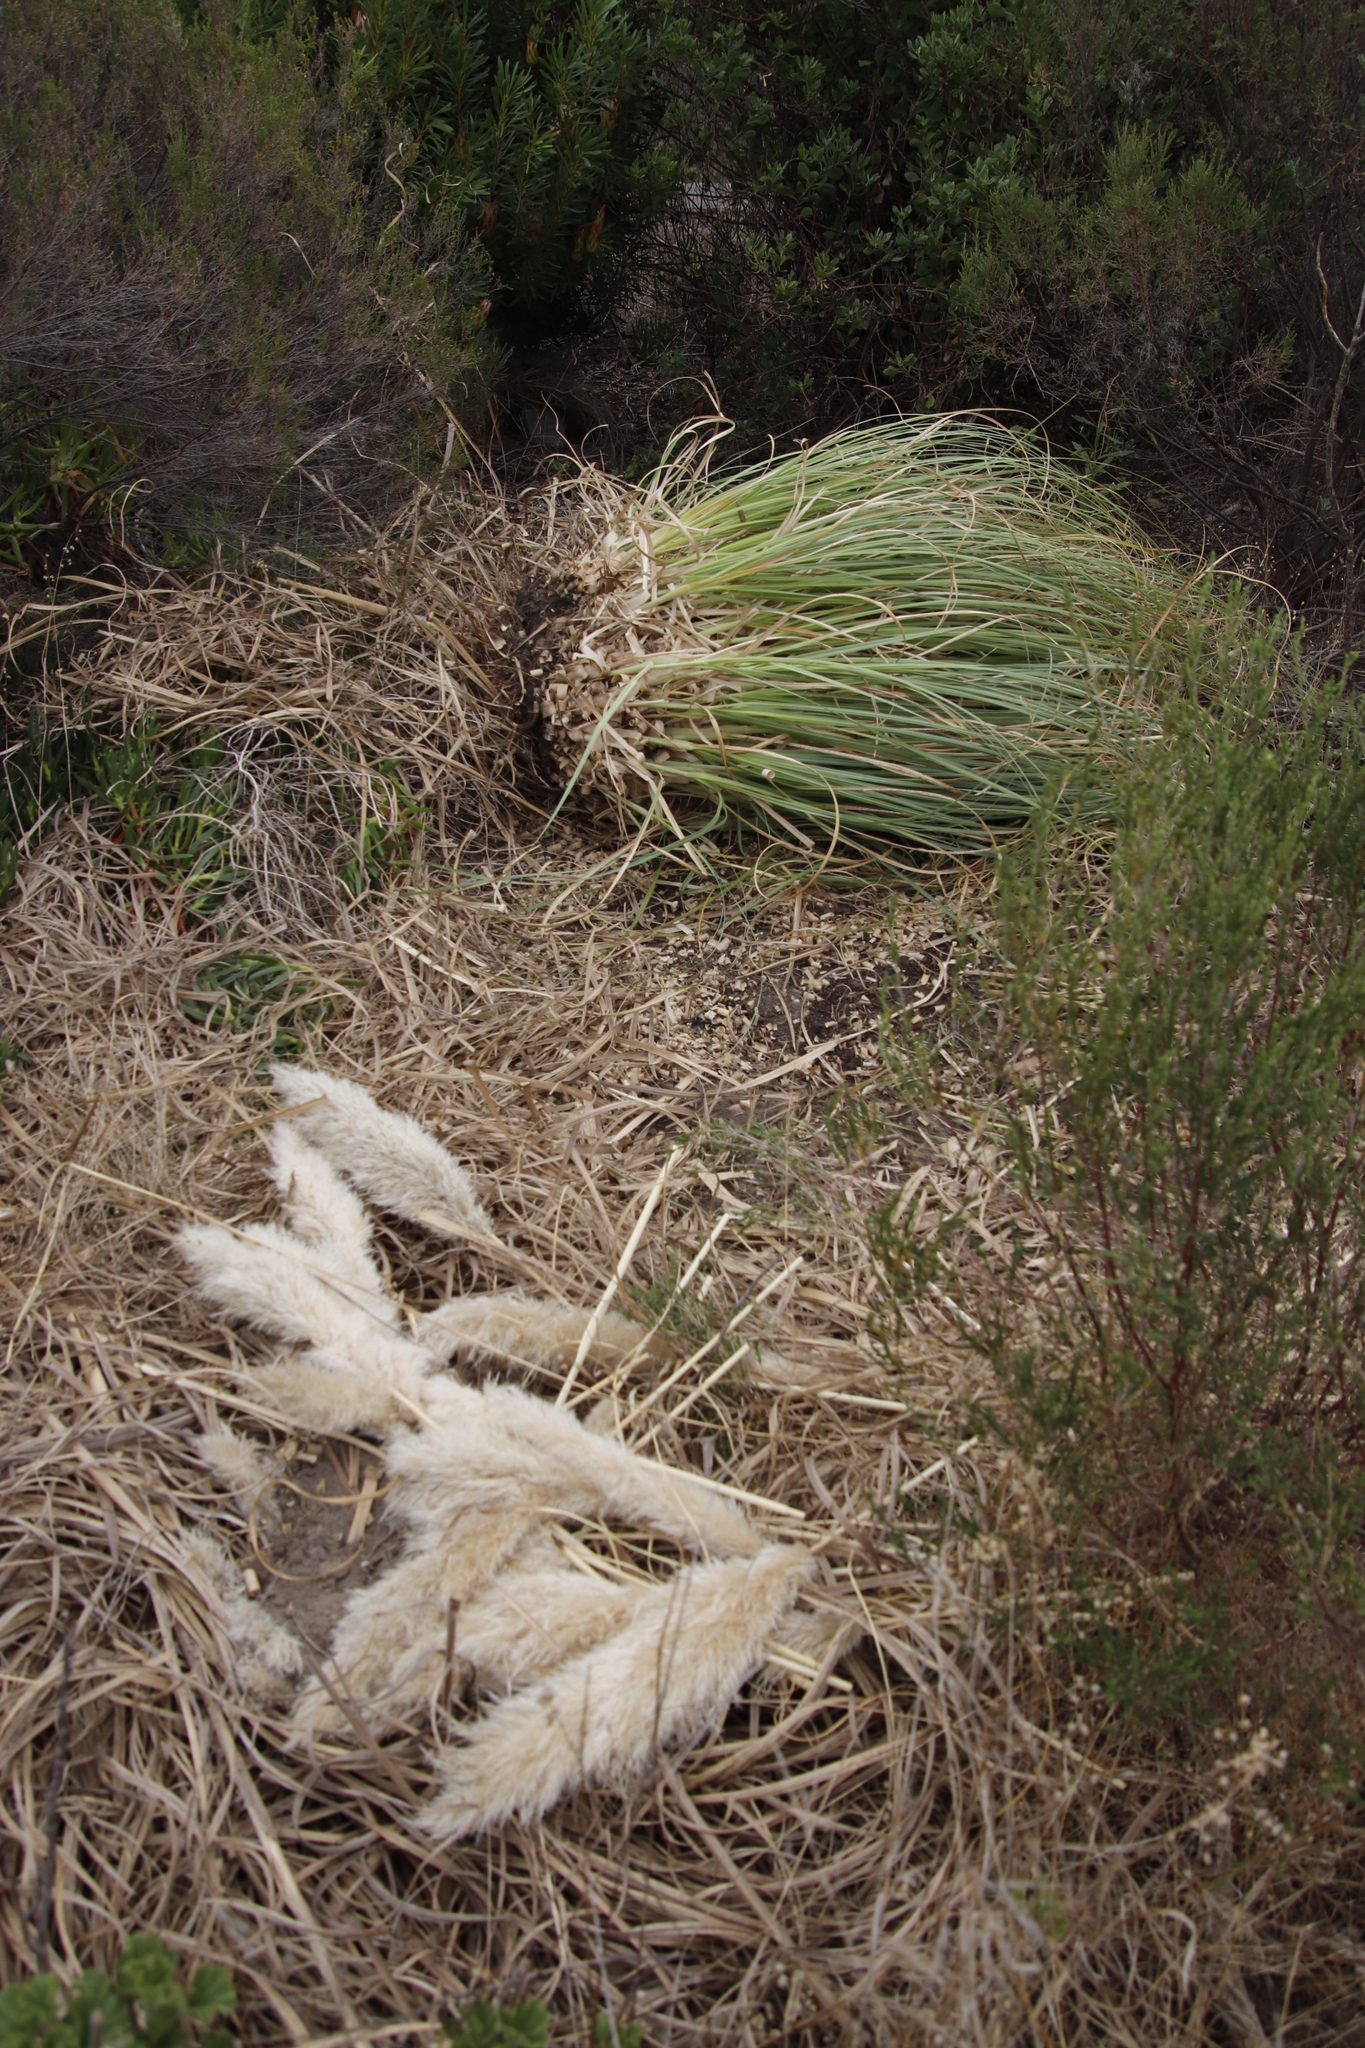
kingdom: Plantae
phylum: Tracheophyta
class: Liliopsida
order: Poales
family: Poaceae
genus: Cortaderia
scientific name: Cortaderia selloana
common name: Uruguayan pampas grass
